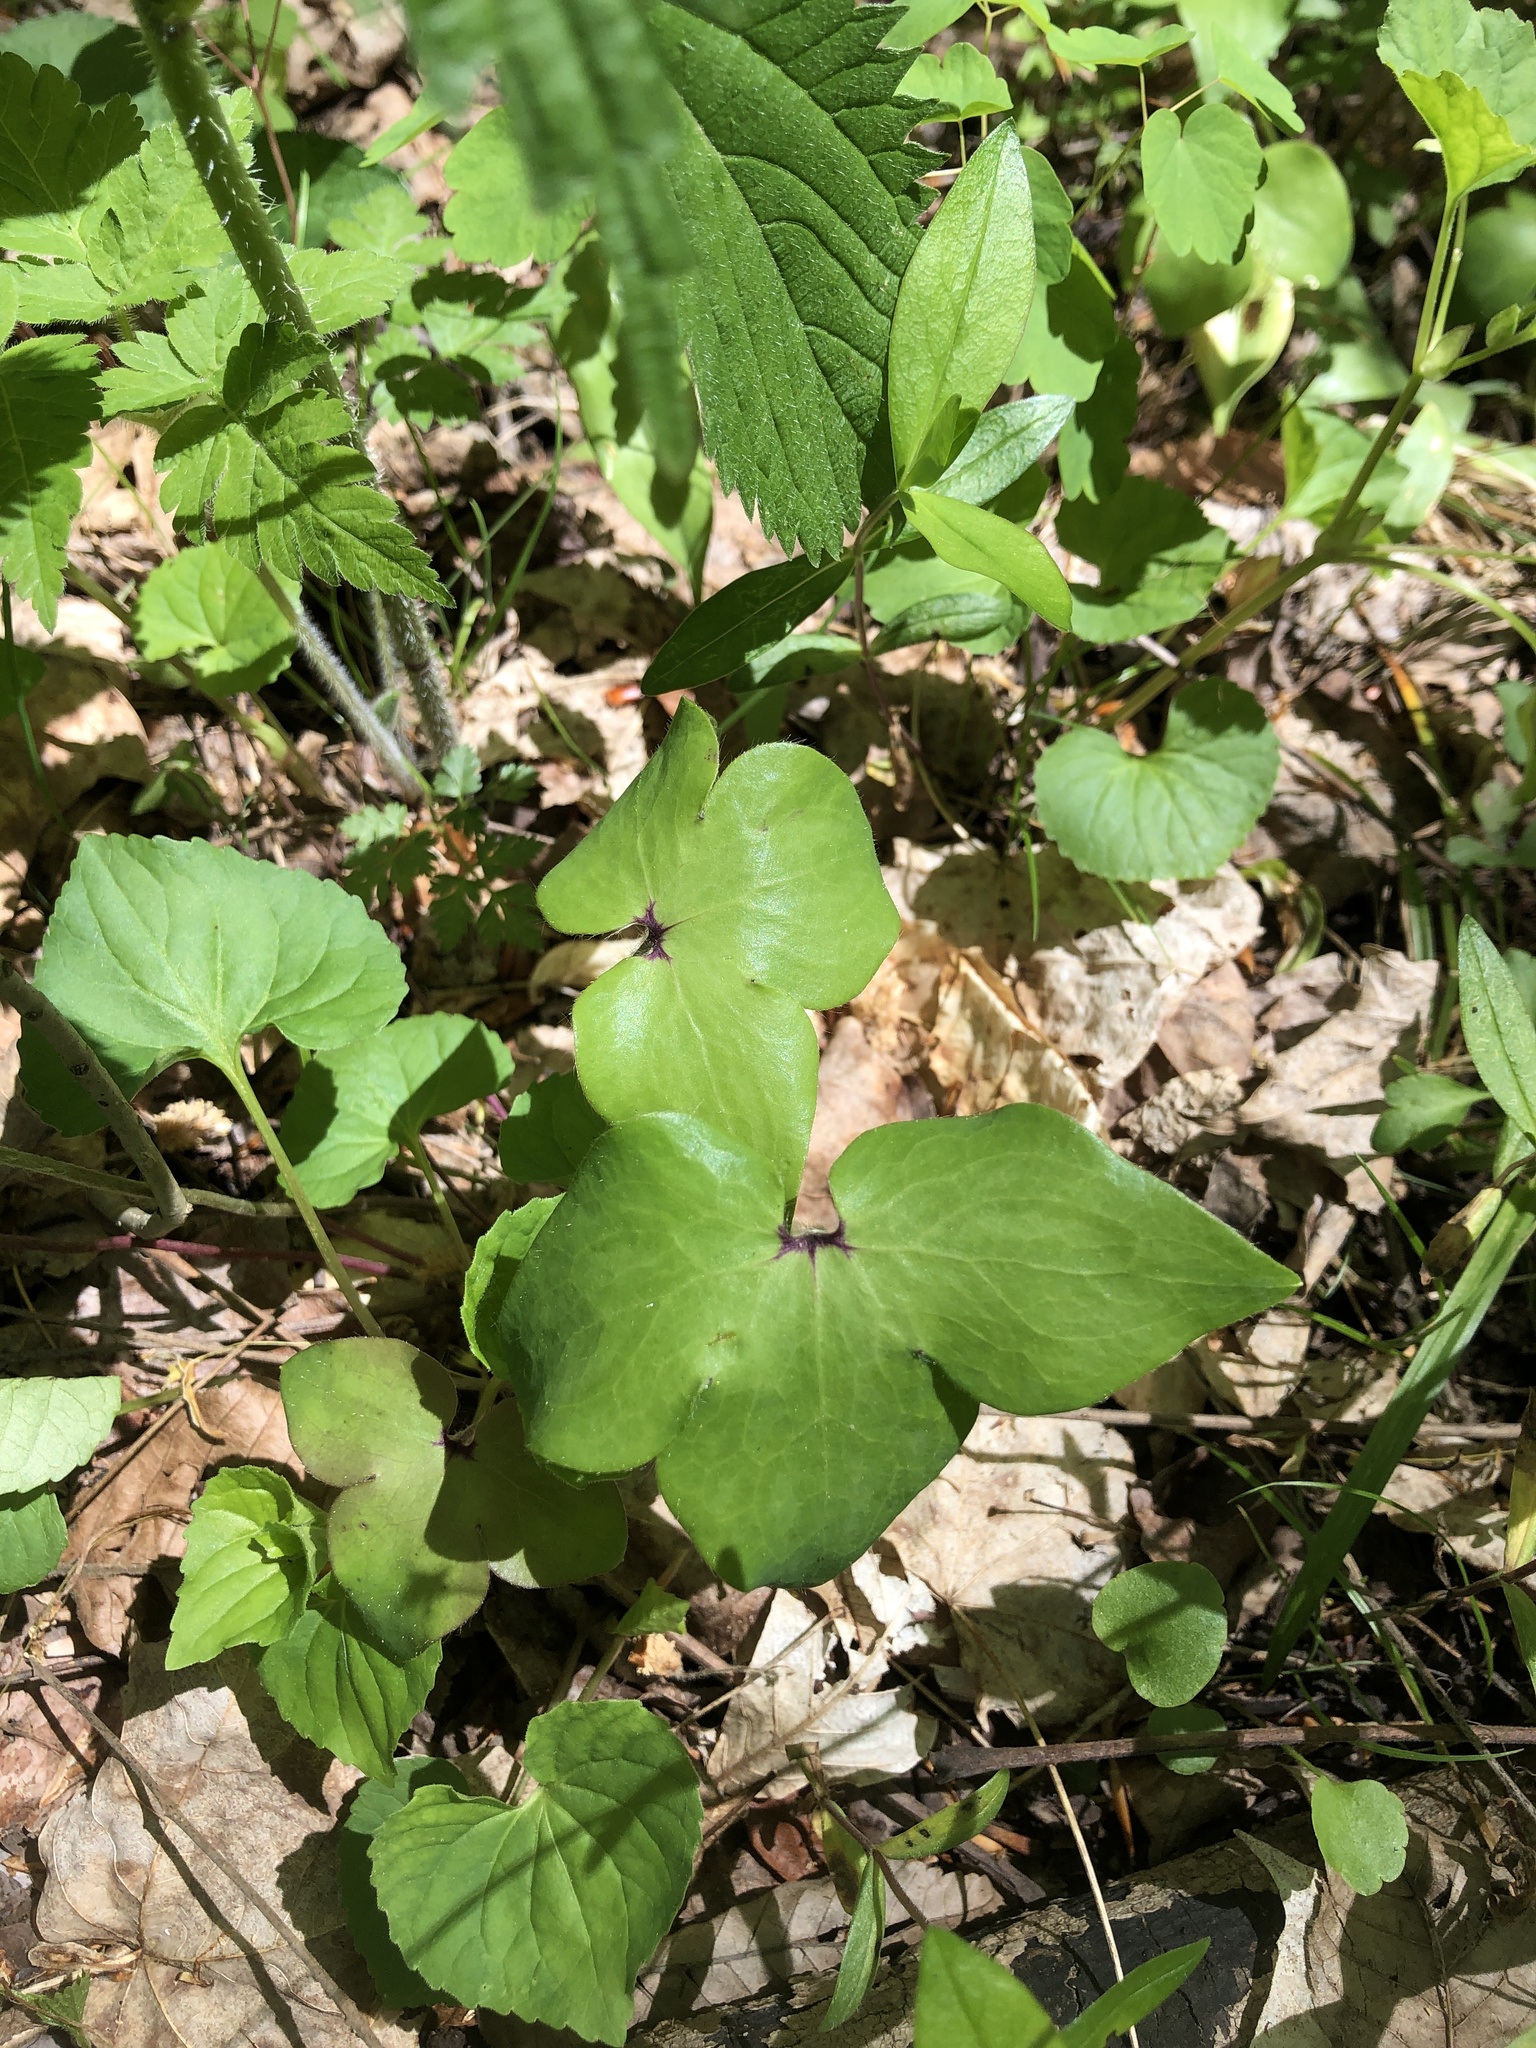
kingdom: Plantae
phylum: Tracheophyta
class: Magnoliopsida
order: Ranunculales
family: Ranunculaceae
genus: Hepatica
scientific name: Hepatica acutiloba
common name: Sharp-lobed hepatica
